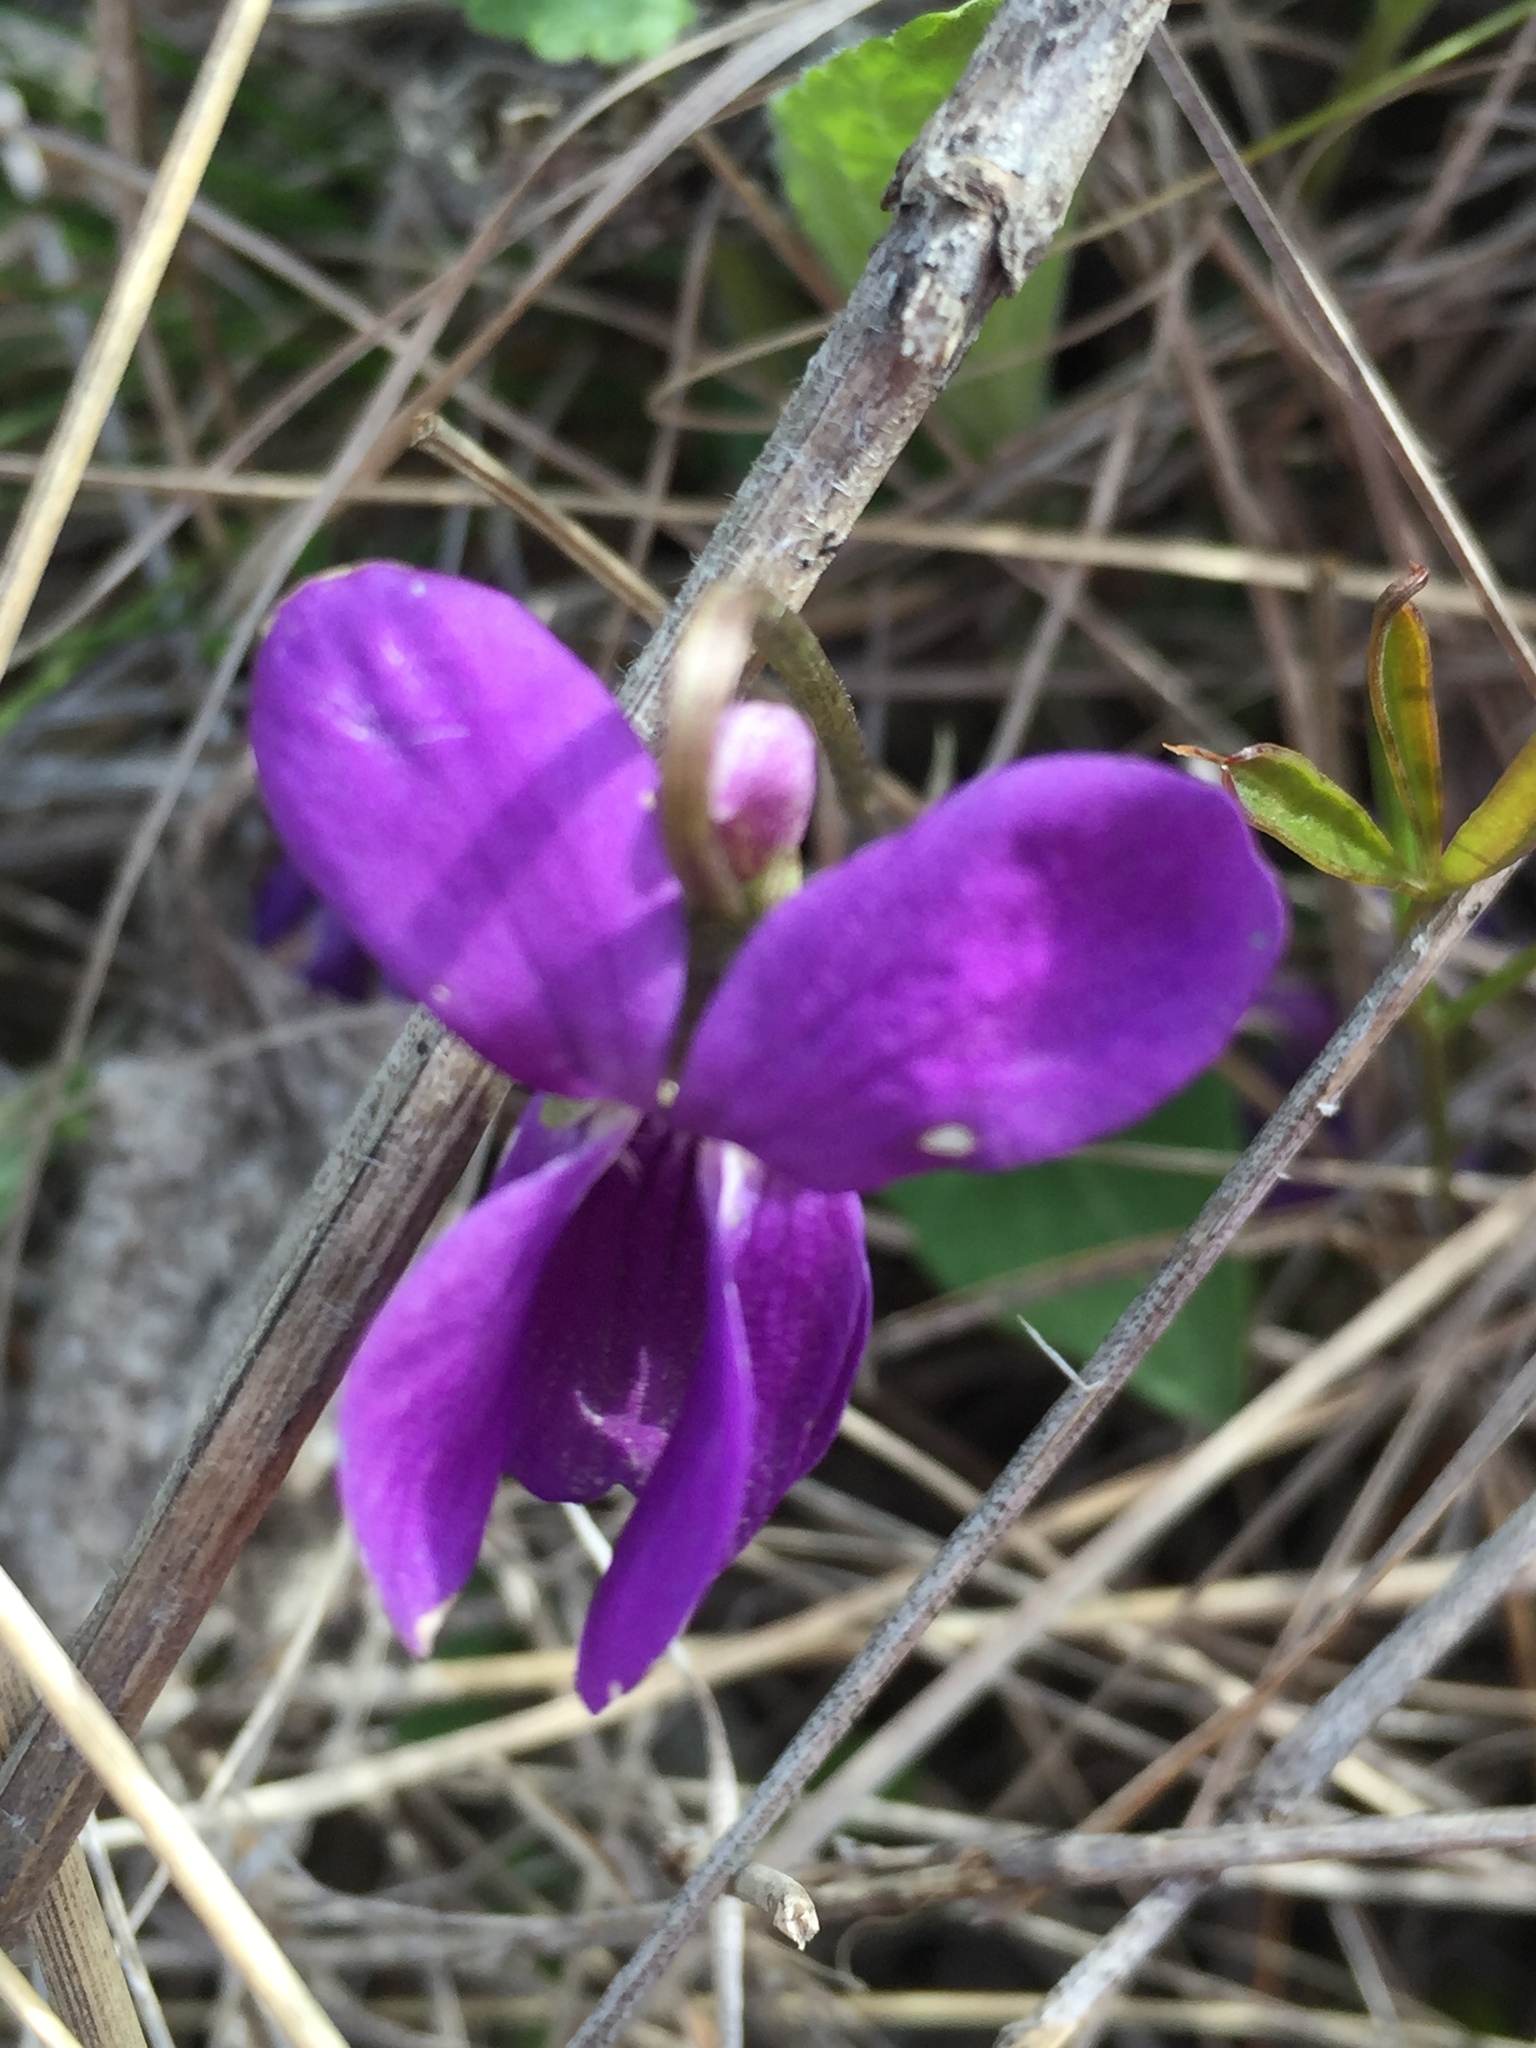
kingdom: Plantae
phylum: Tracheophyta
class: Magnoliopsida
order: Malpighiales
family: Violaceae
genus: Viola
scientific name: Viola ambigua
